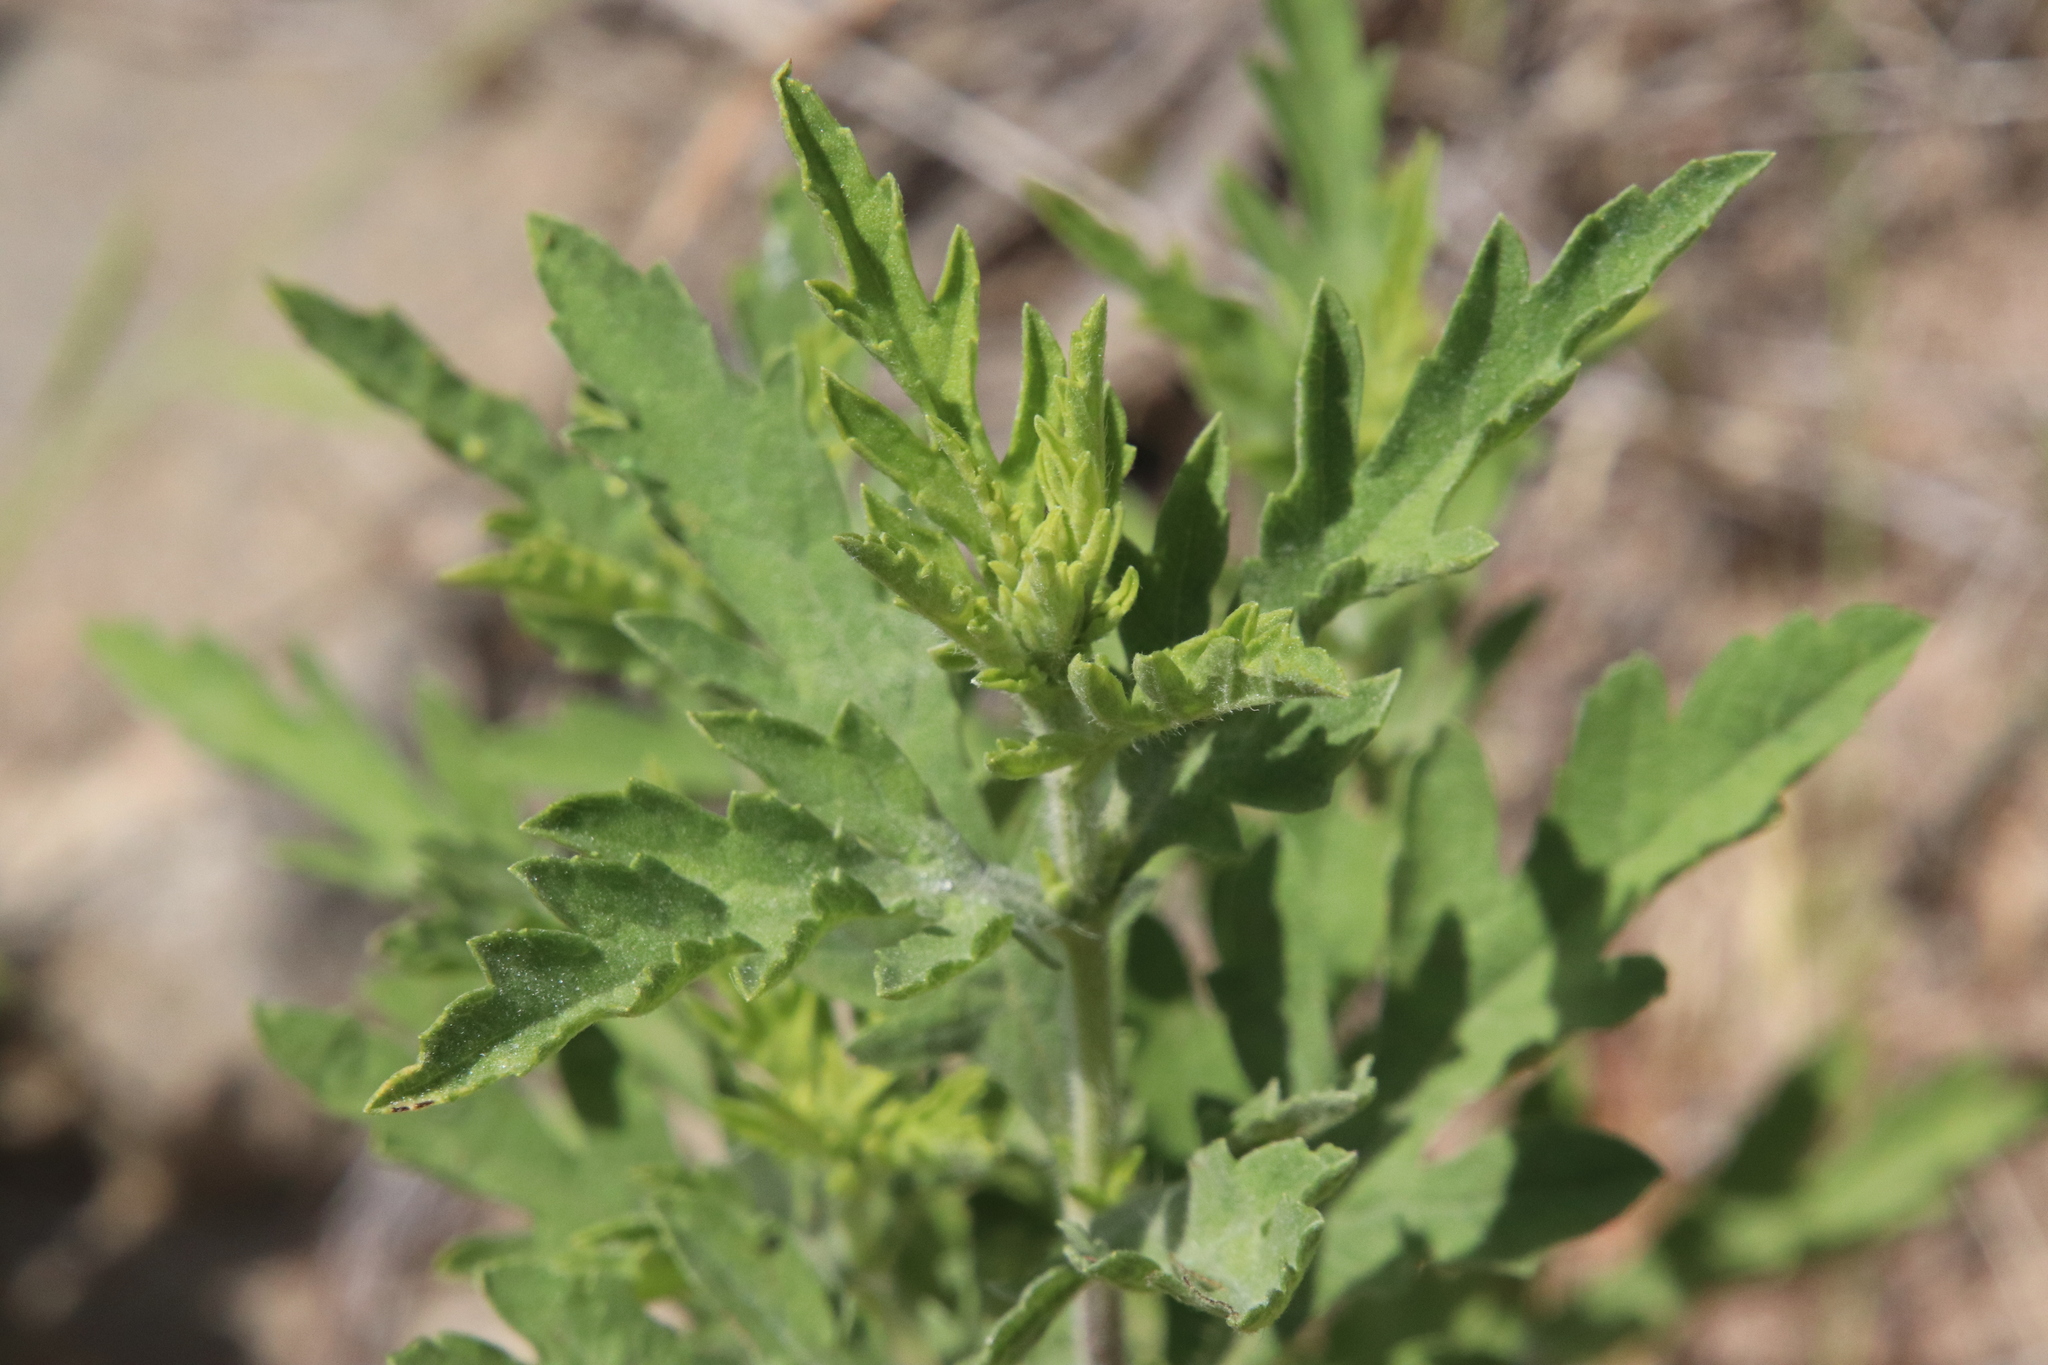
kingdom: Plantae
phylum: Tracheophyta
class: Magnoliopsida
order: Asterales
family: Asteraceae
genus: Ambrosia
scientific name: Ambrosia psilostachya
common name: Perennial ragweed
